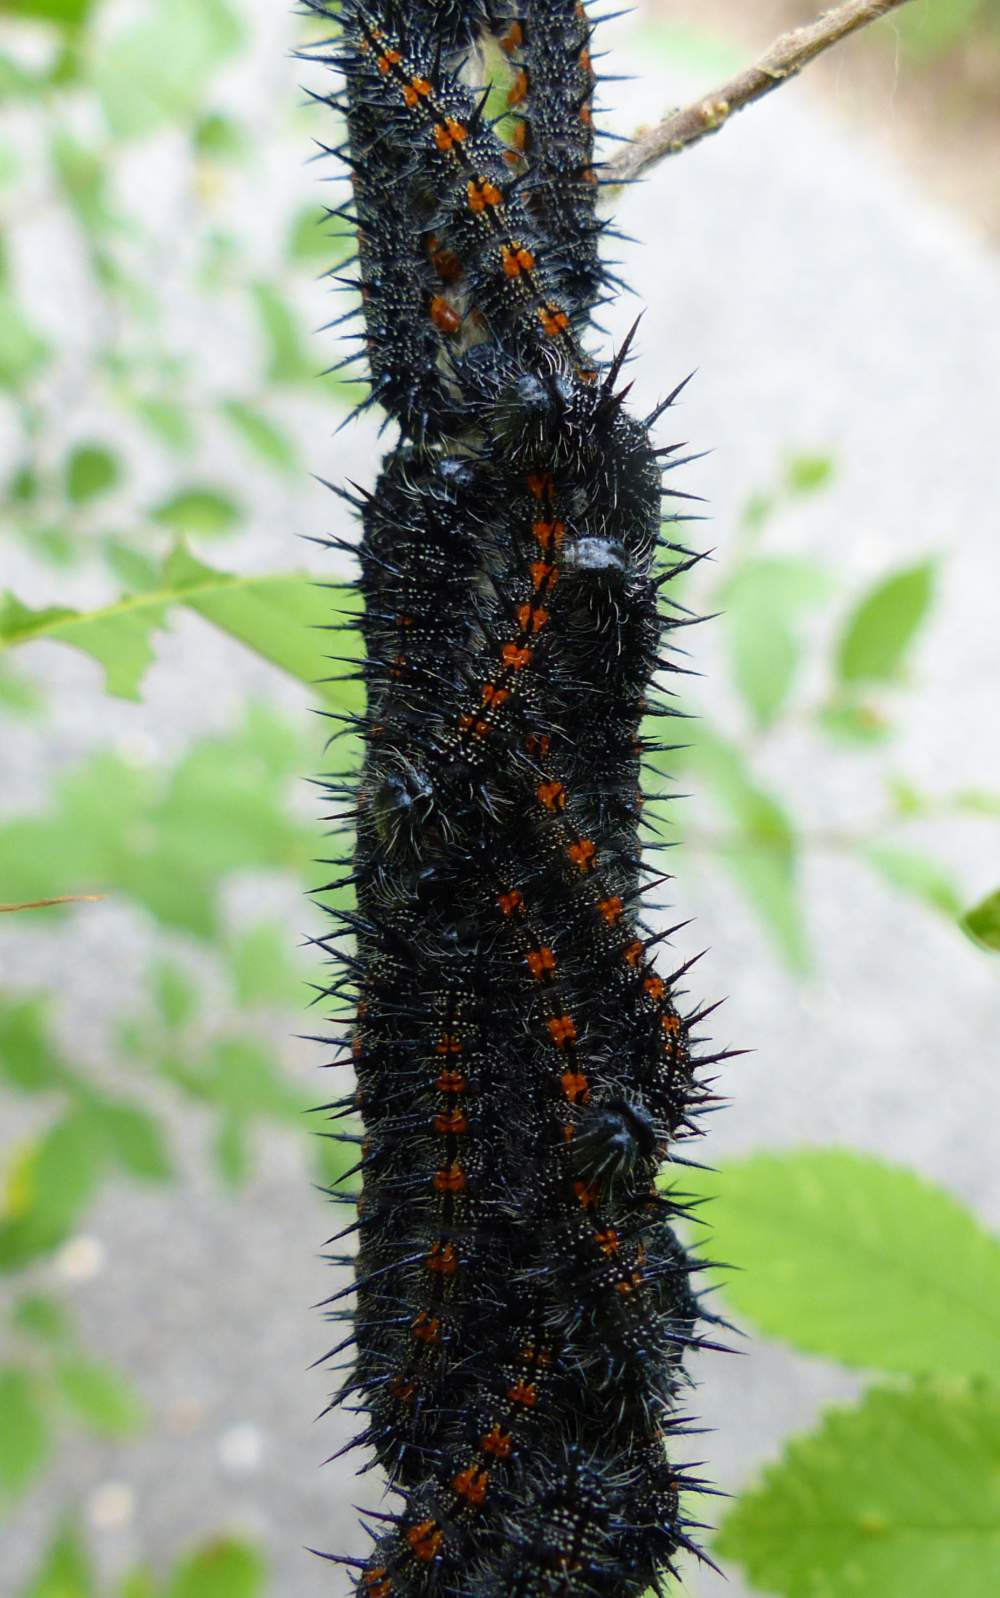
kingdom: Animalia
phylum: Arthropoda
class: Insecta
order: Lepidoptera
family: Nymphalidae
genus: Nymphalis
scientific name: Nymphalis antiopa
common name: Camberwell beauty
